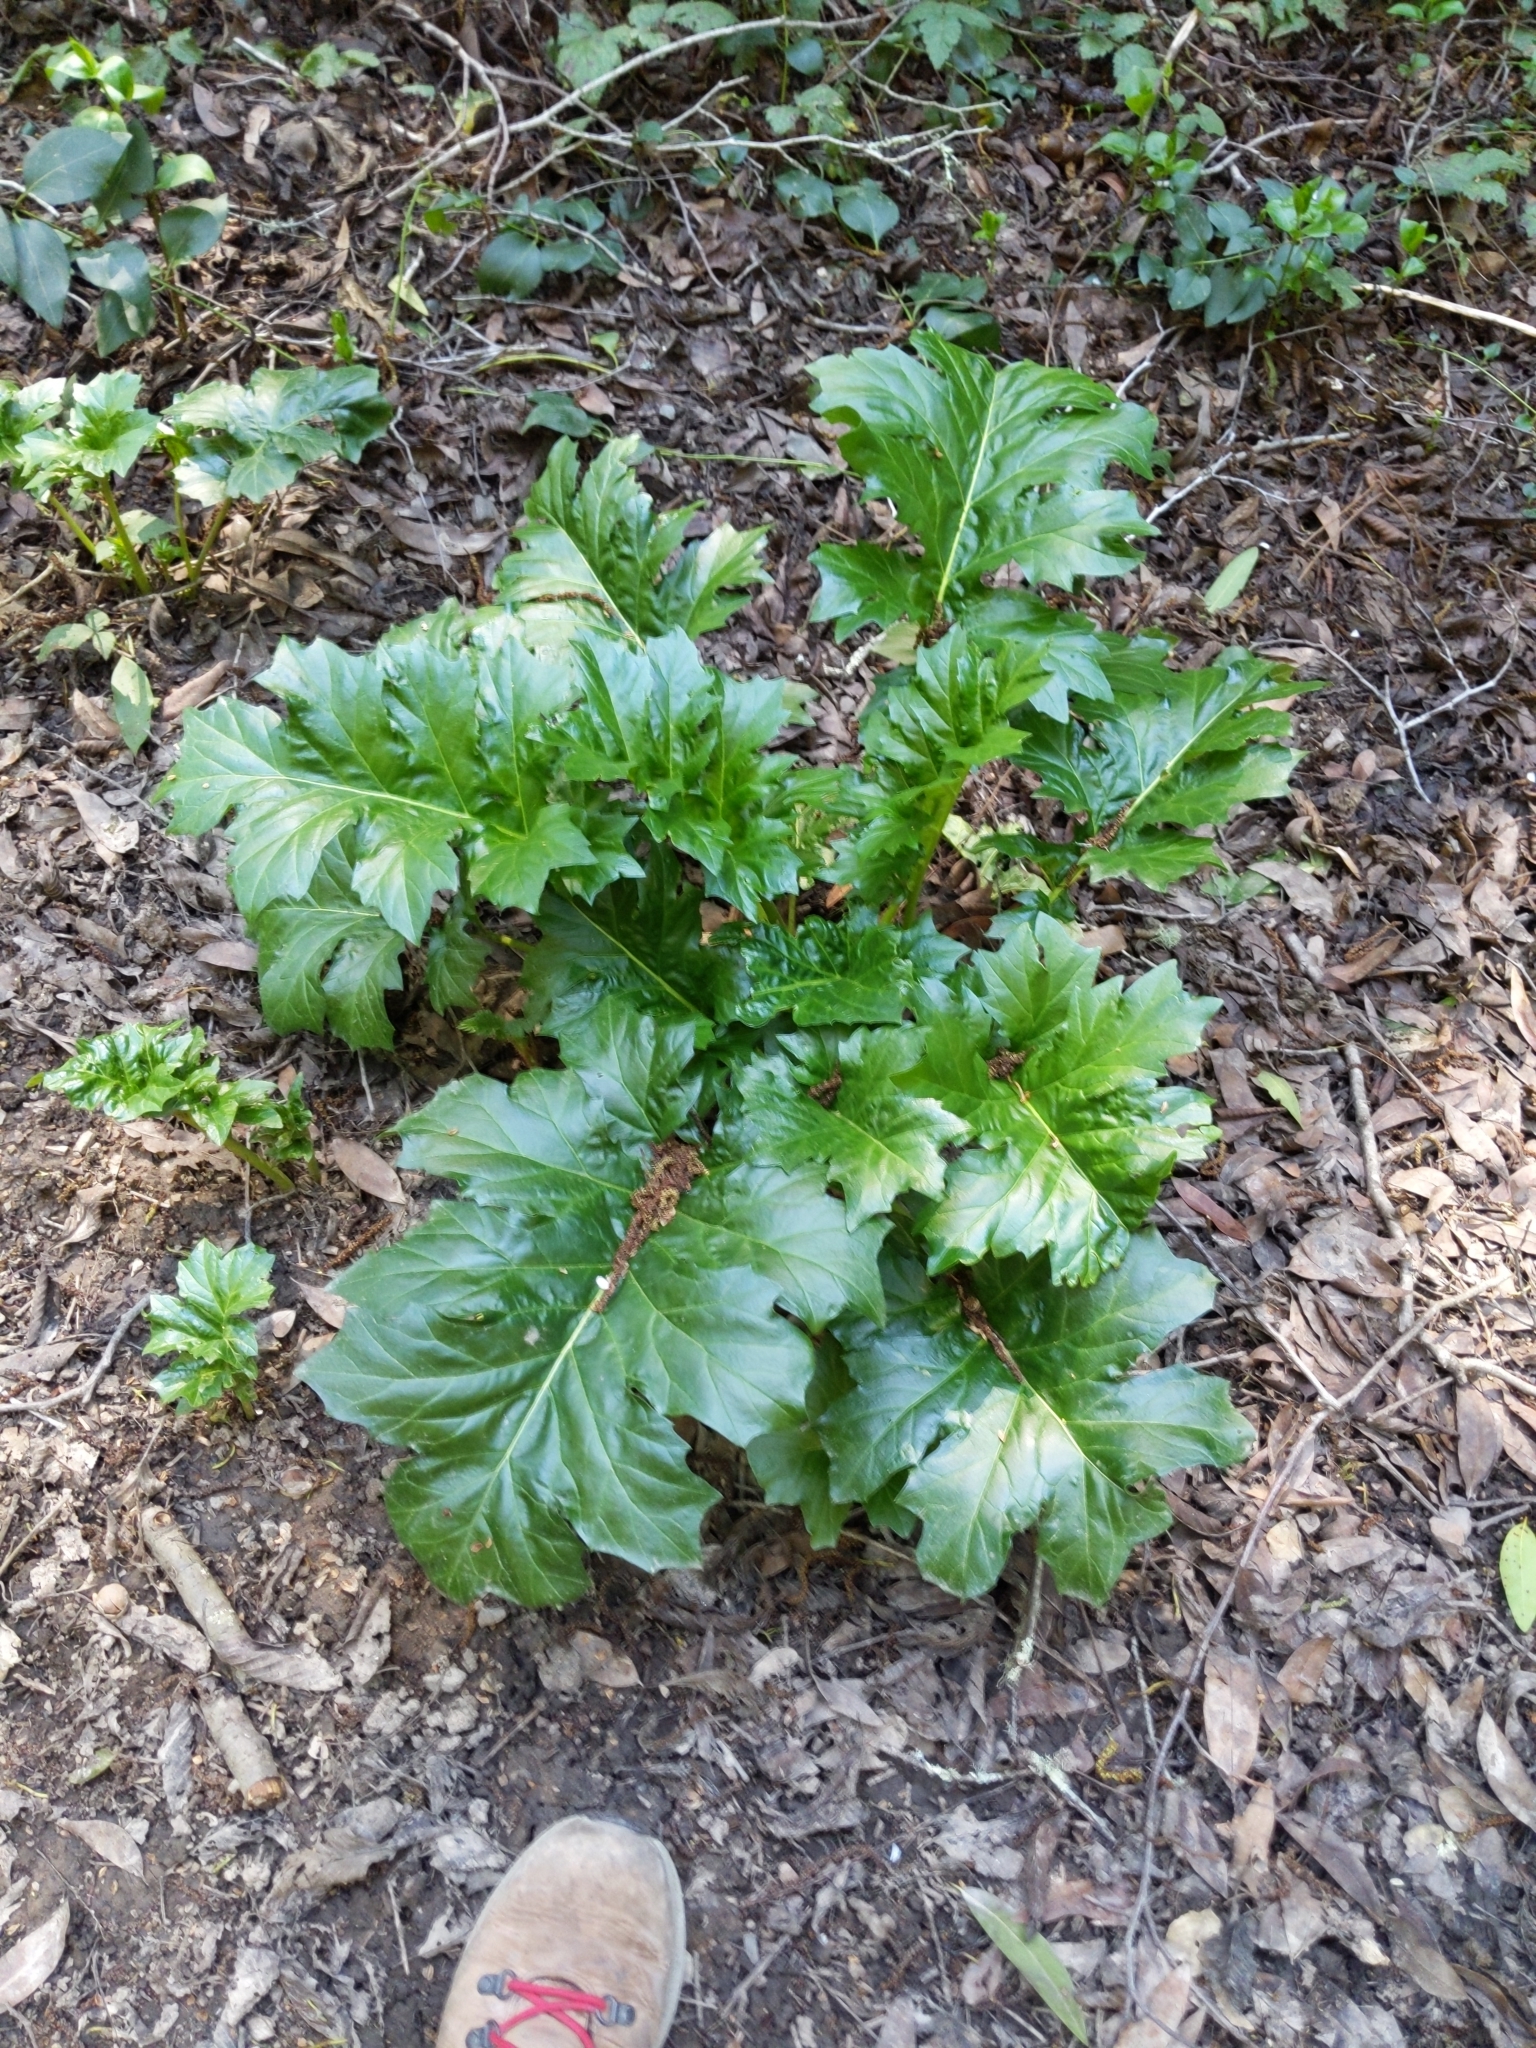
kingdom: Plantae
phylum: Tracheophyta
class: Magnoliopsida
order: Lamiales
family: Acanthaceae
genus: Acanthus
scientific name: Acanthus mollis
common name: Bear's-breech
